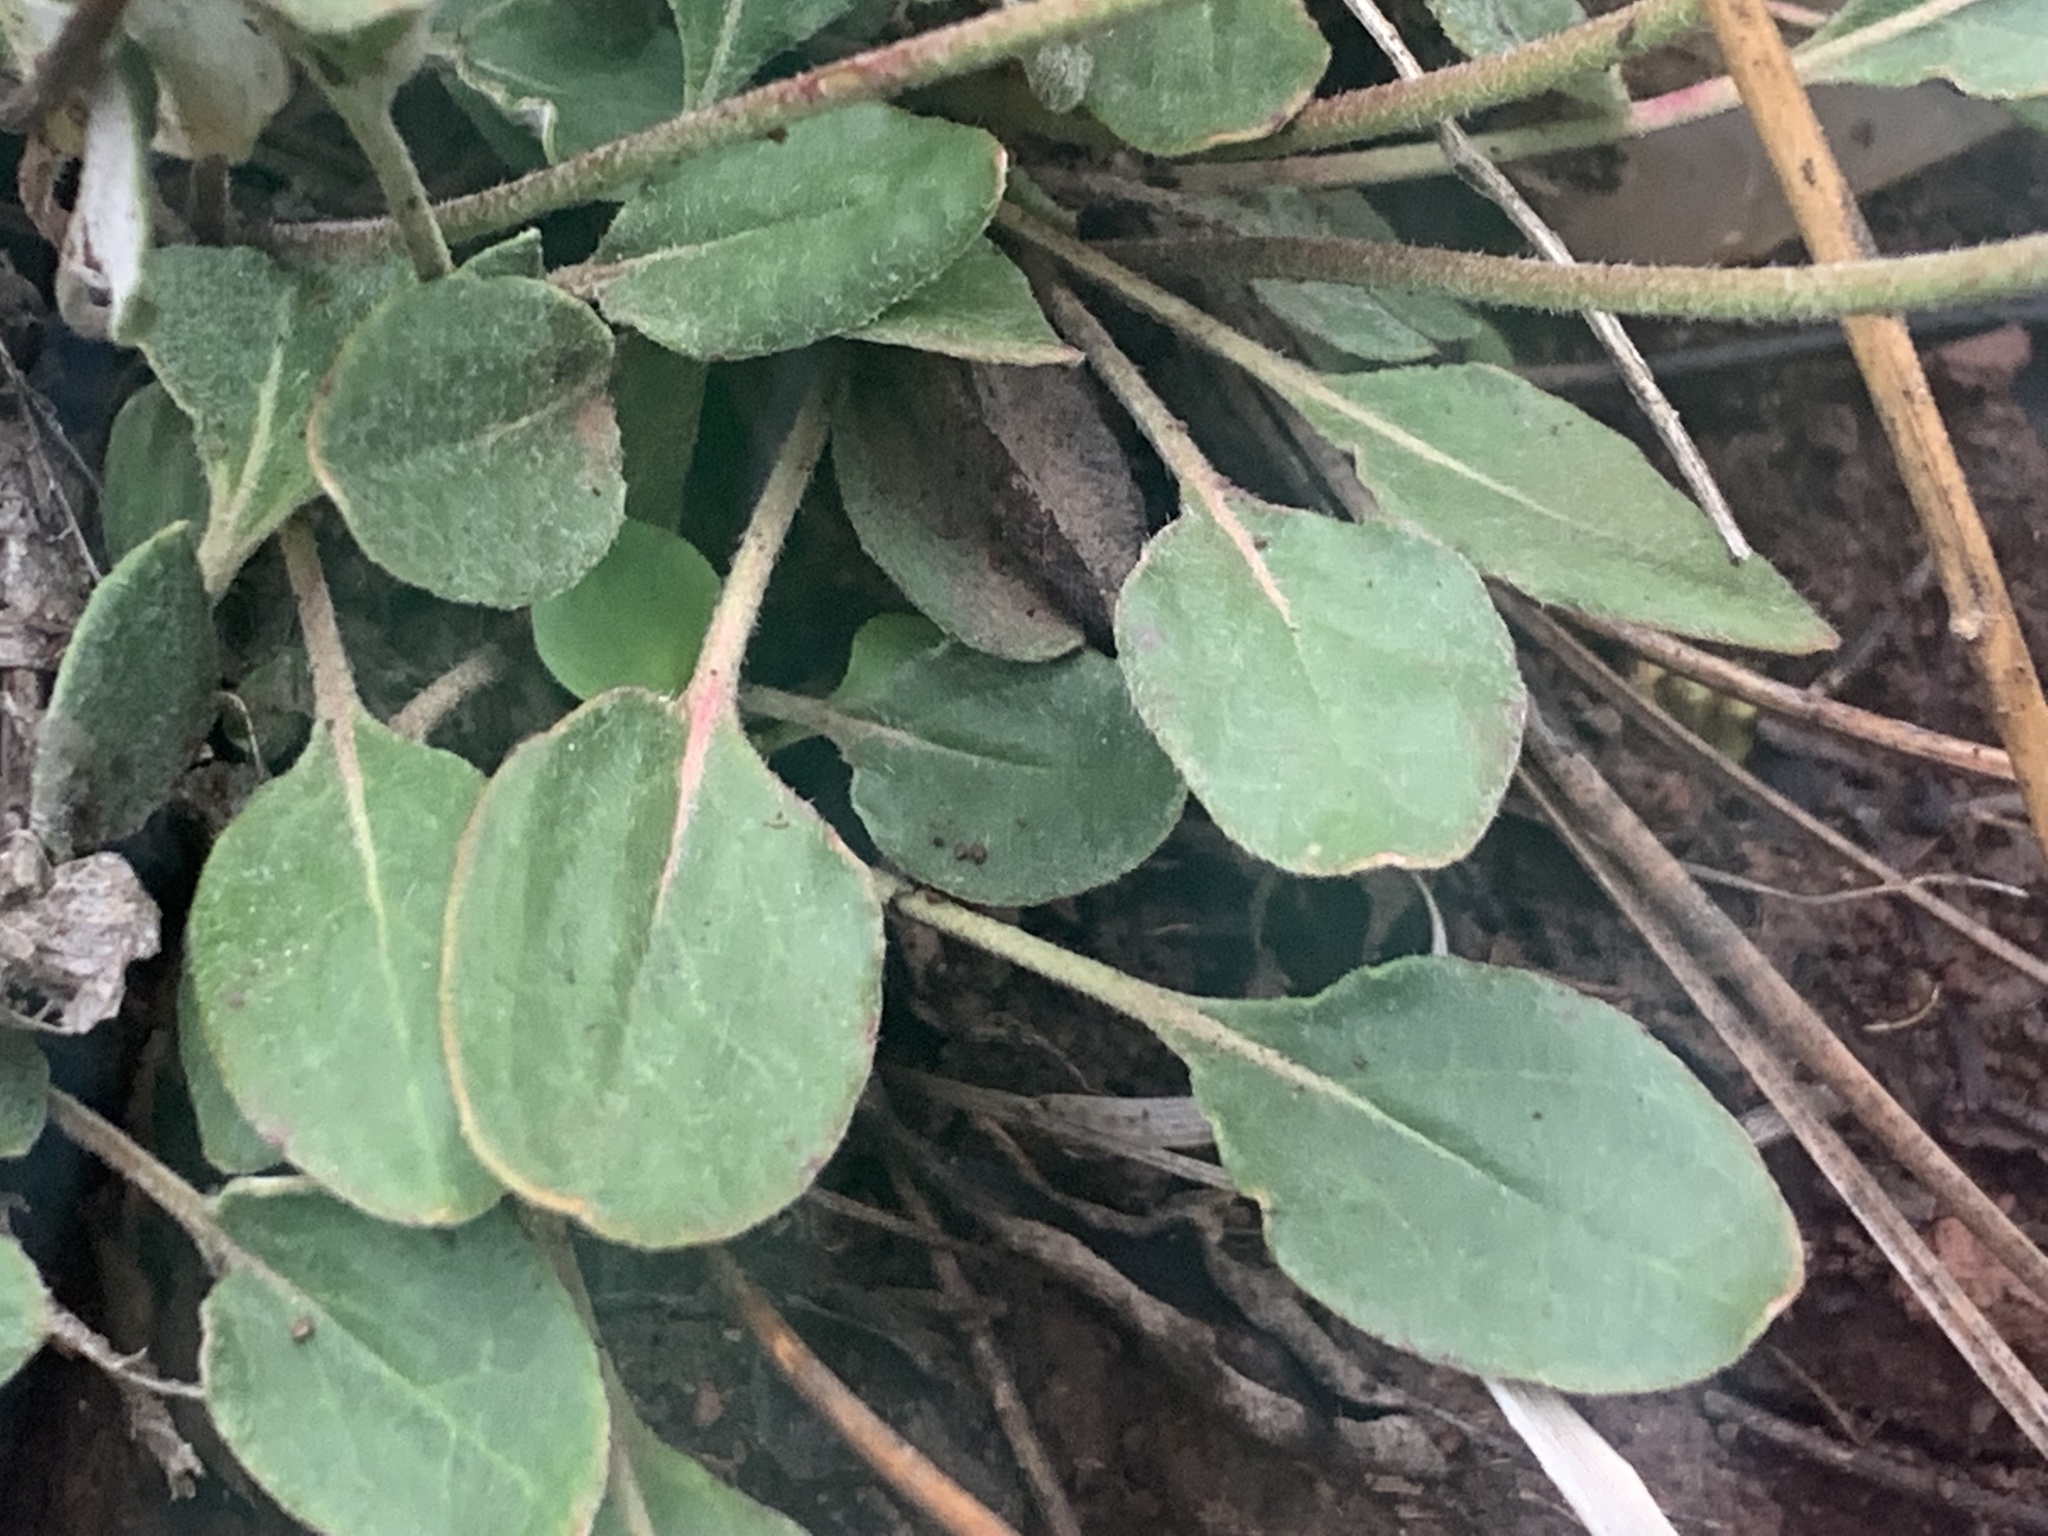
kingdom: Plantae
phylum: Tracheophyta
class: Magnoliopsida
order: Caryophyllales
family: Polygonaceae
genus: Eriogonum
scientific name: Eriogonum umbellatum
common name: Sulfur-buckwheat
